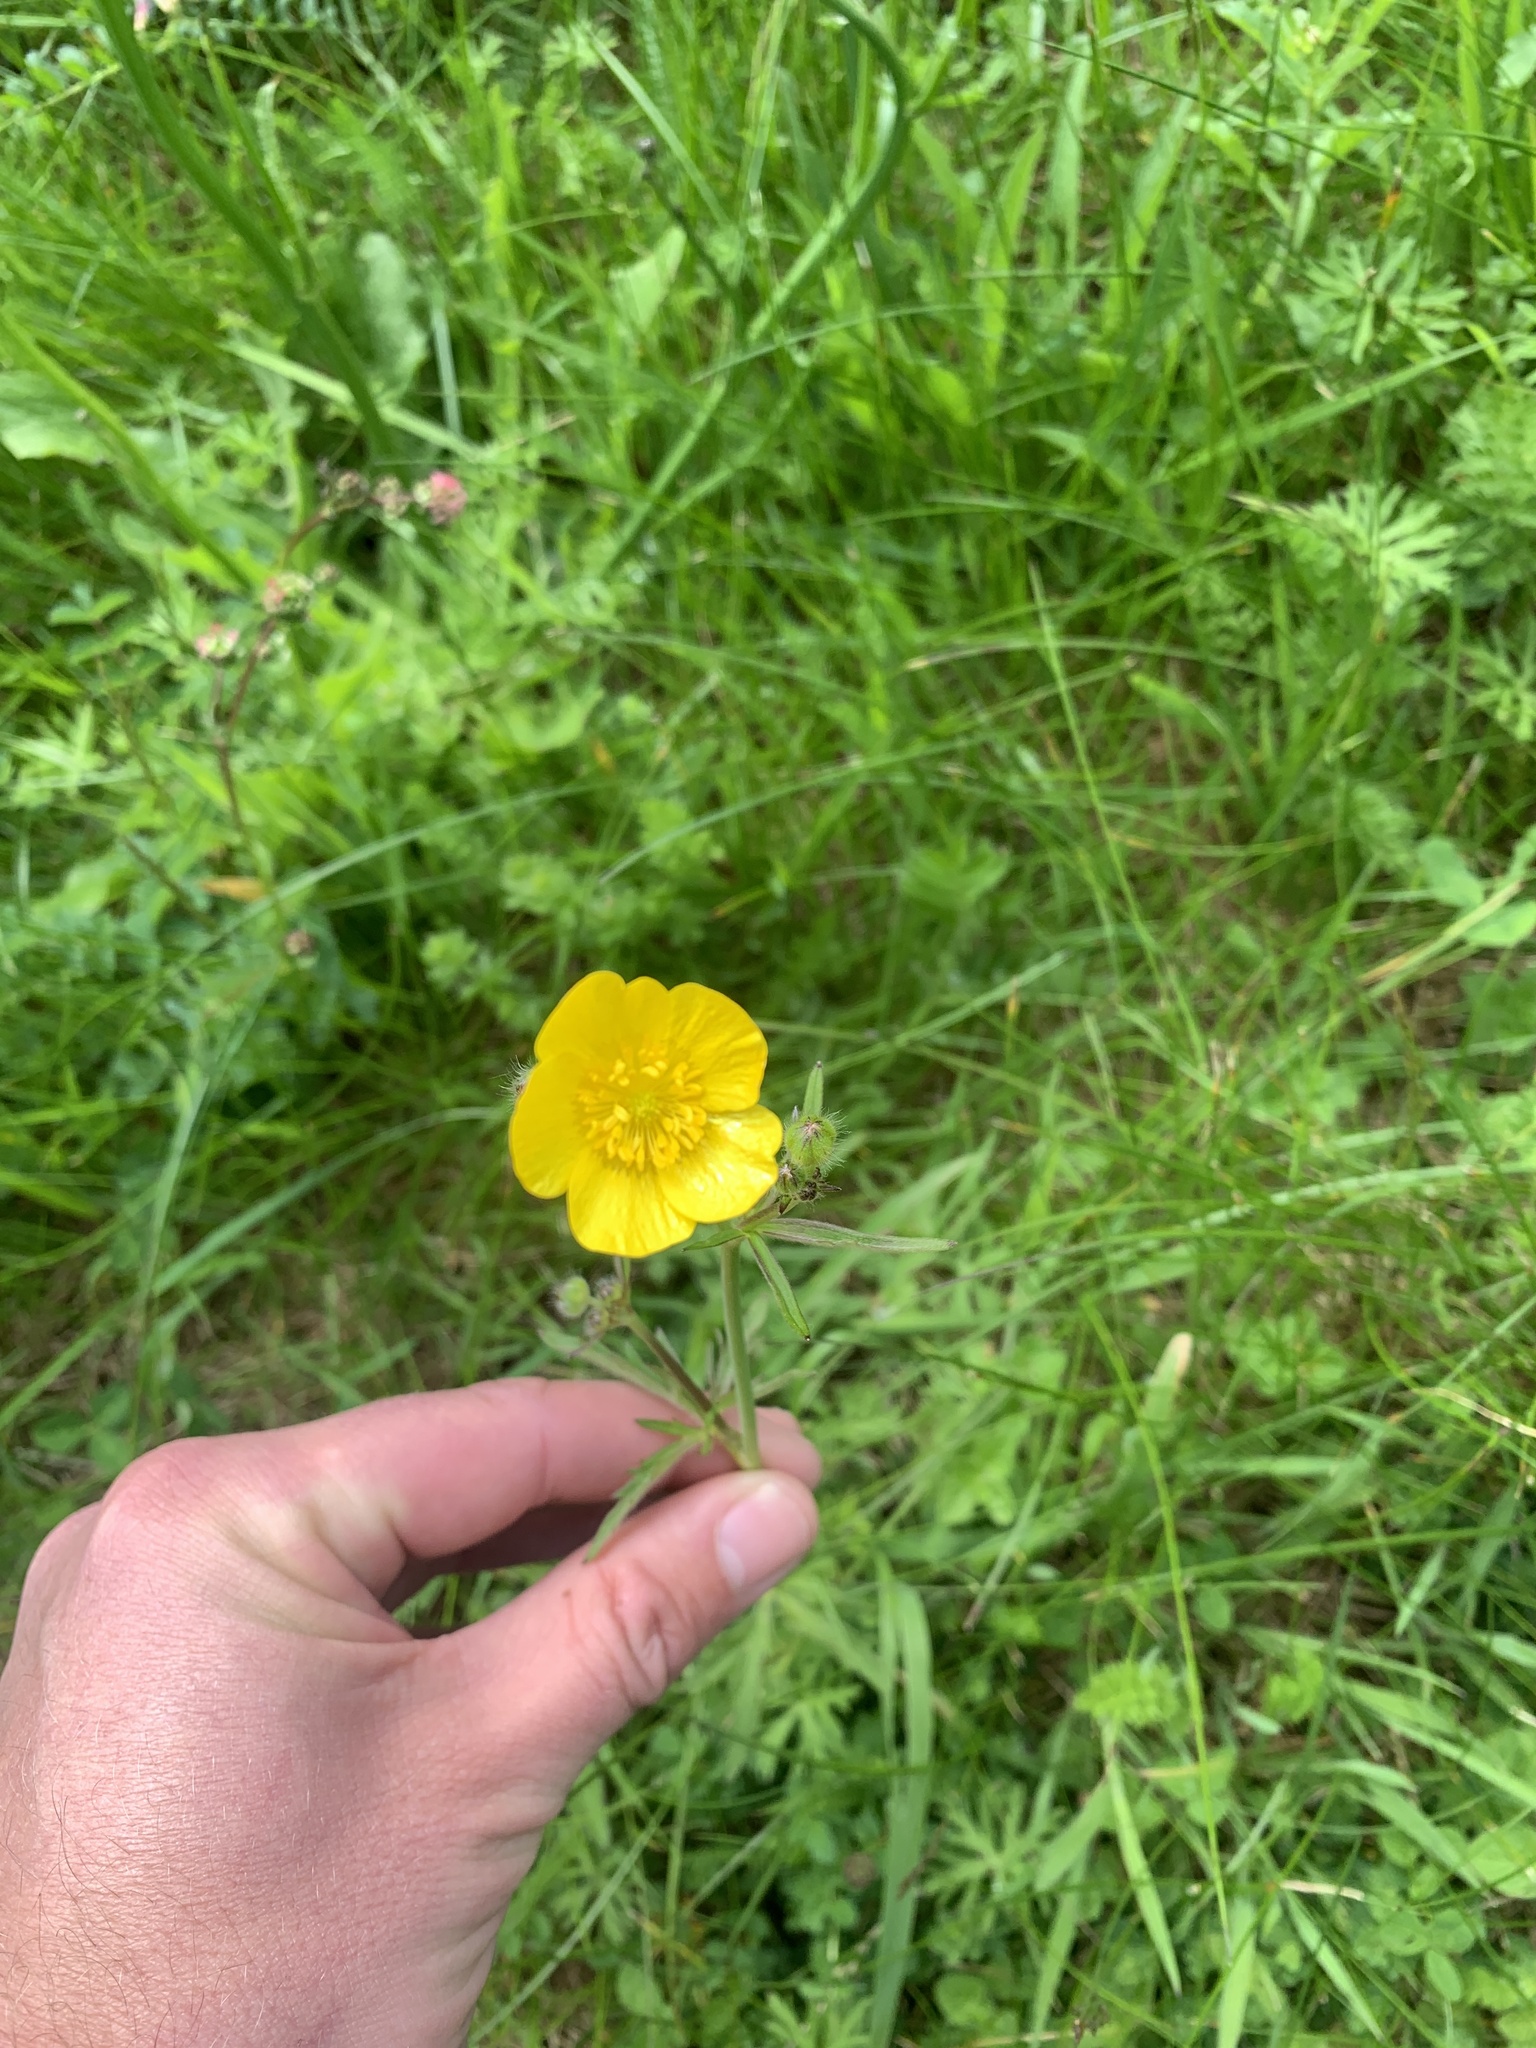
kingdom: Plantae
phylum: Tracheophyta
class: Magnoliopsida
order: Ranunculales
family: Ranunculaceae
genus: Ranunculus
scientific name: Ranunculus acris
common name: Meadow buttercup
